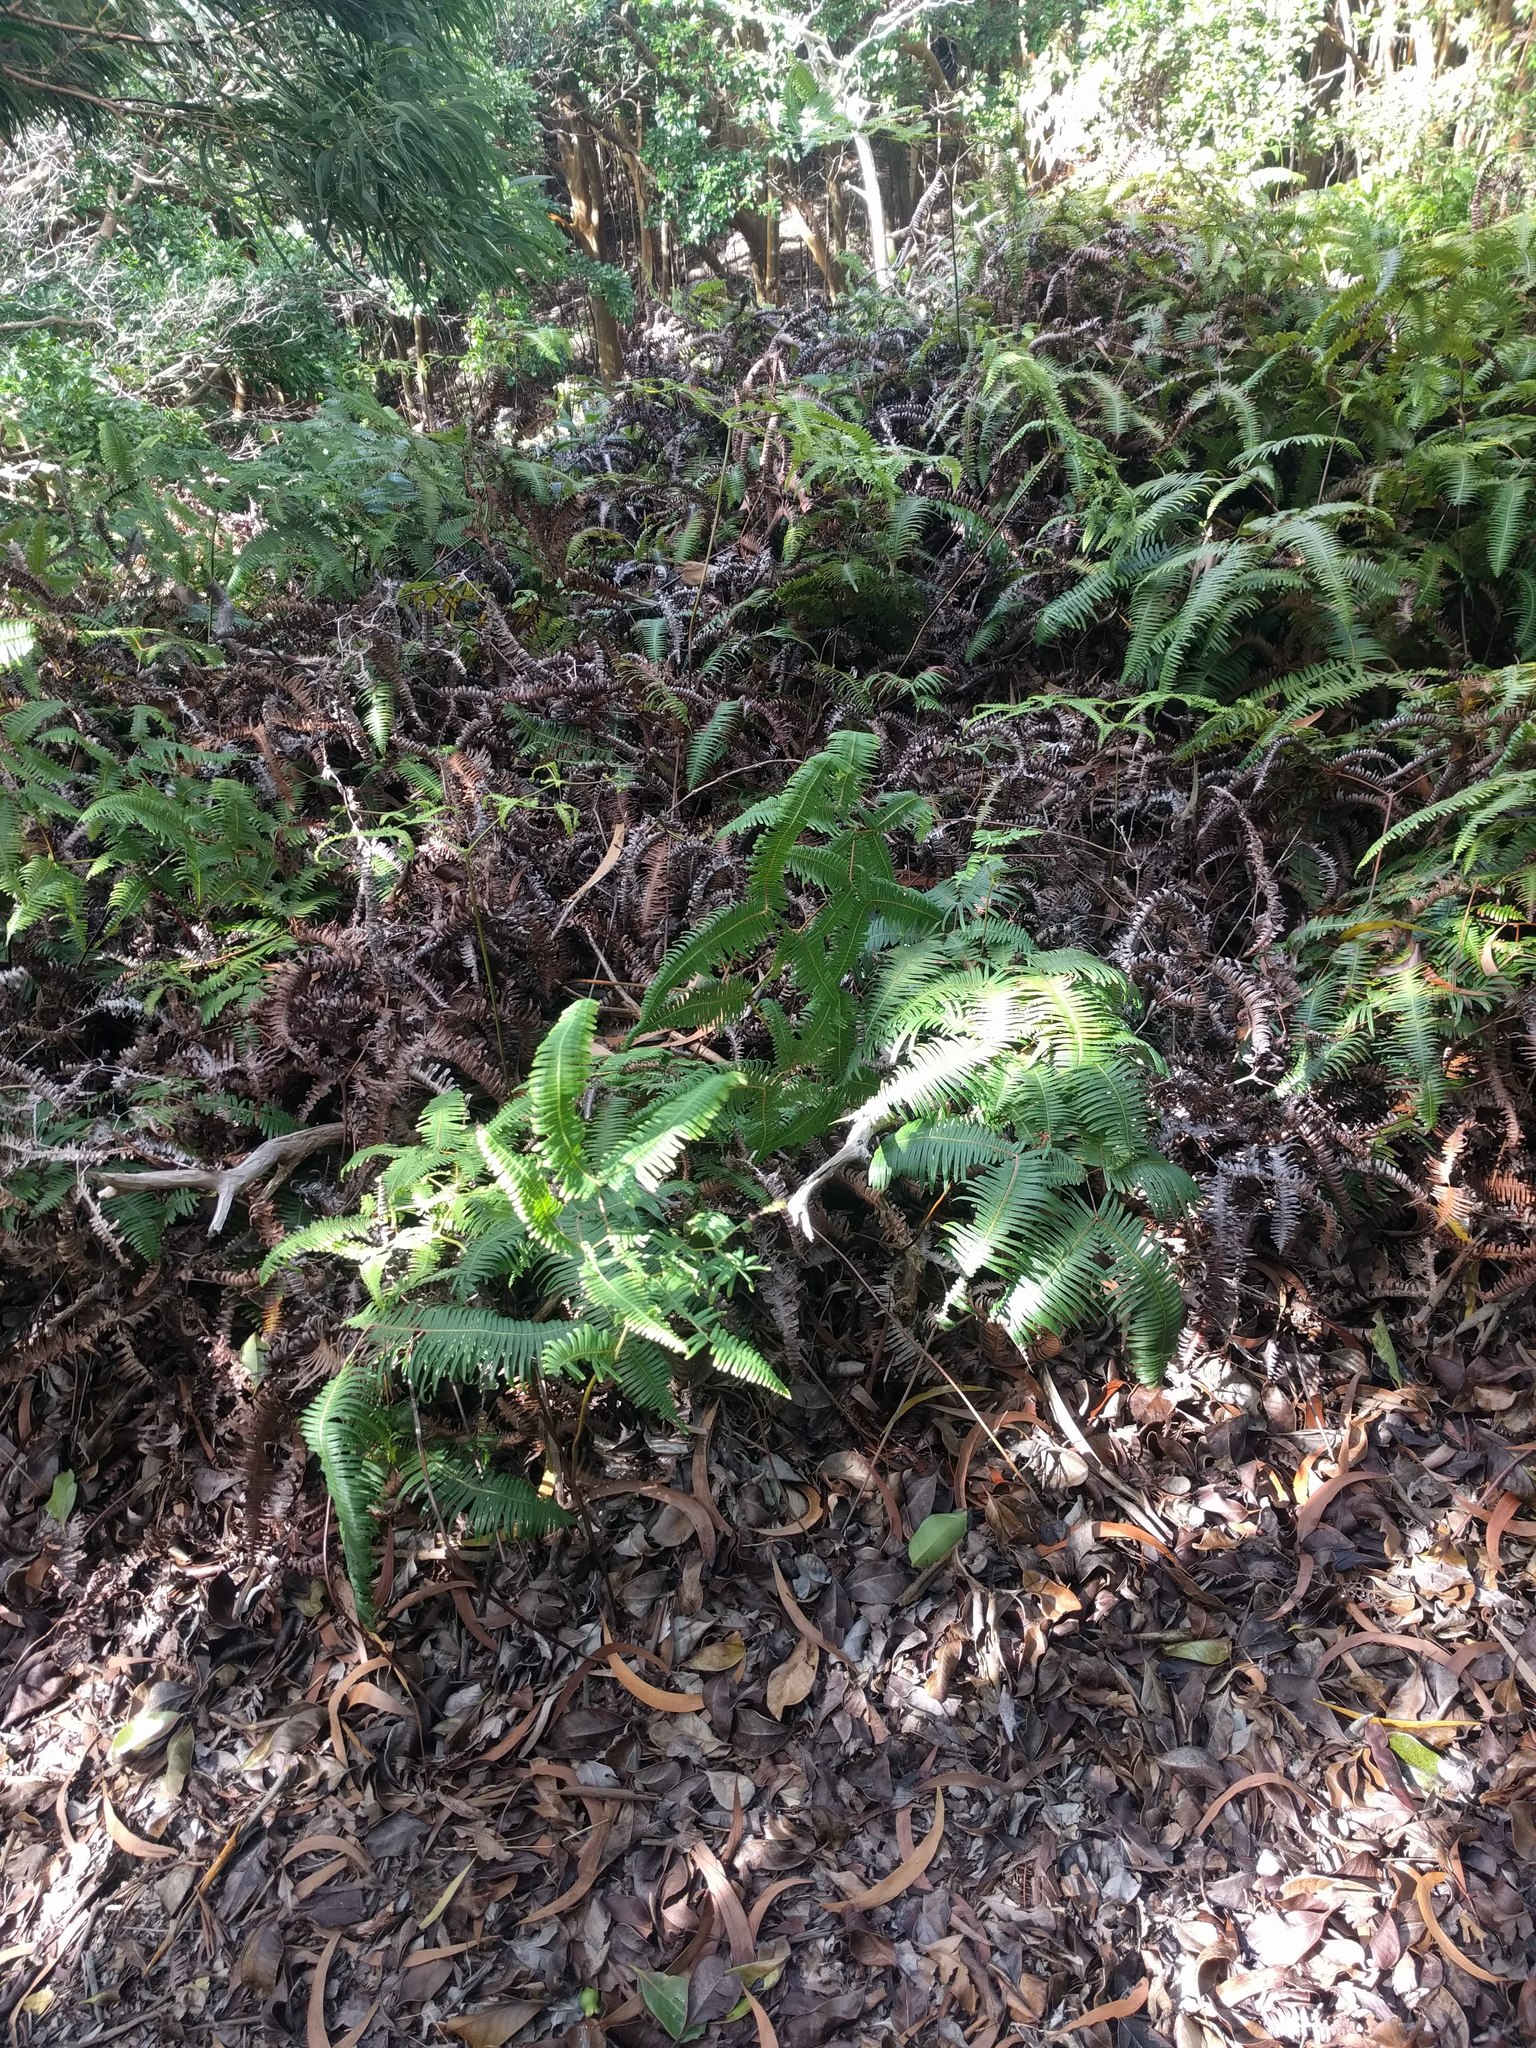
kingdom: Plantae
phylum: Tracheophyta
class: Polypodiopsida
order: Gleicheniales
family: Gleicheniaceae
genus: Dicranopteris
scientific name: Dicranopteris linearis
